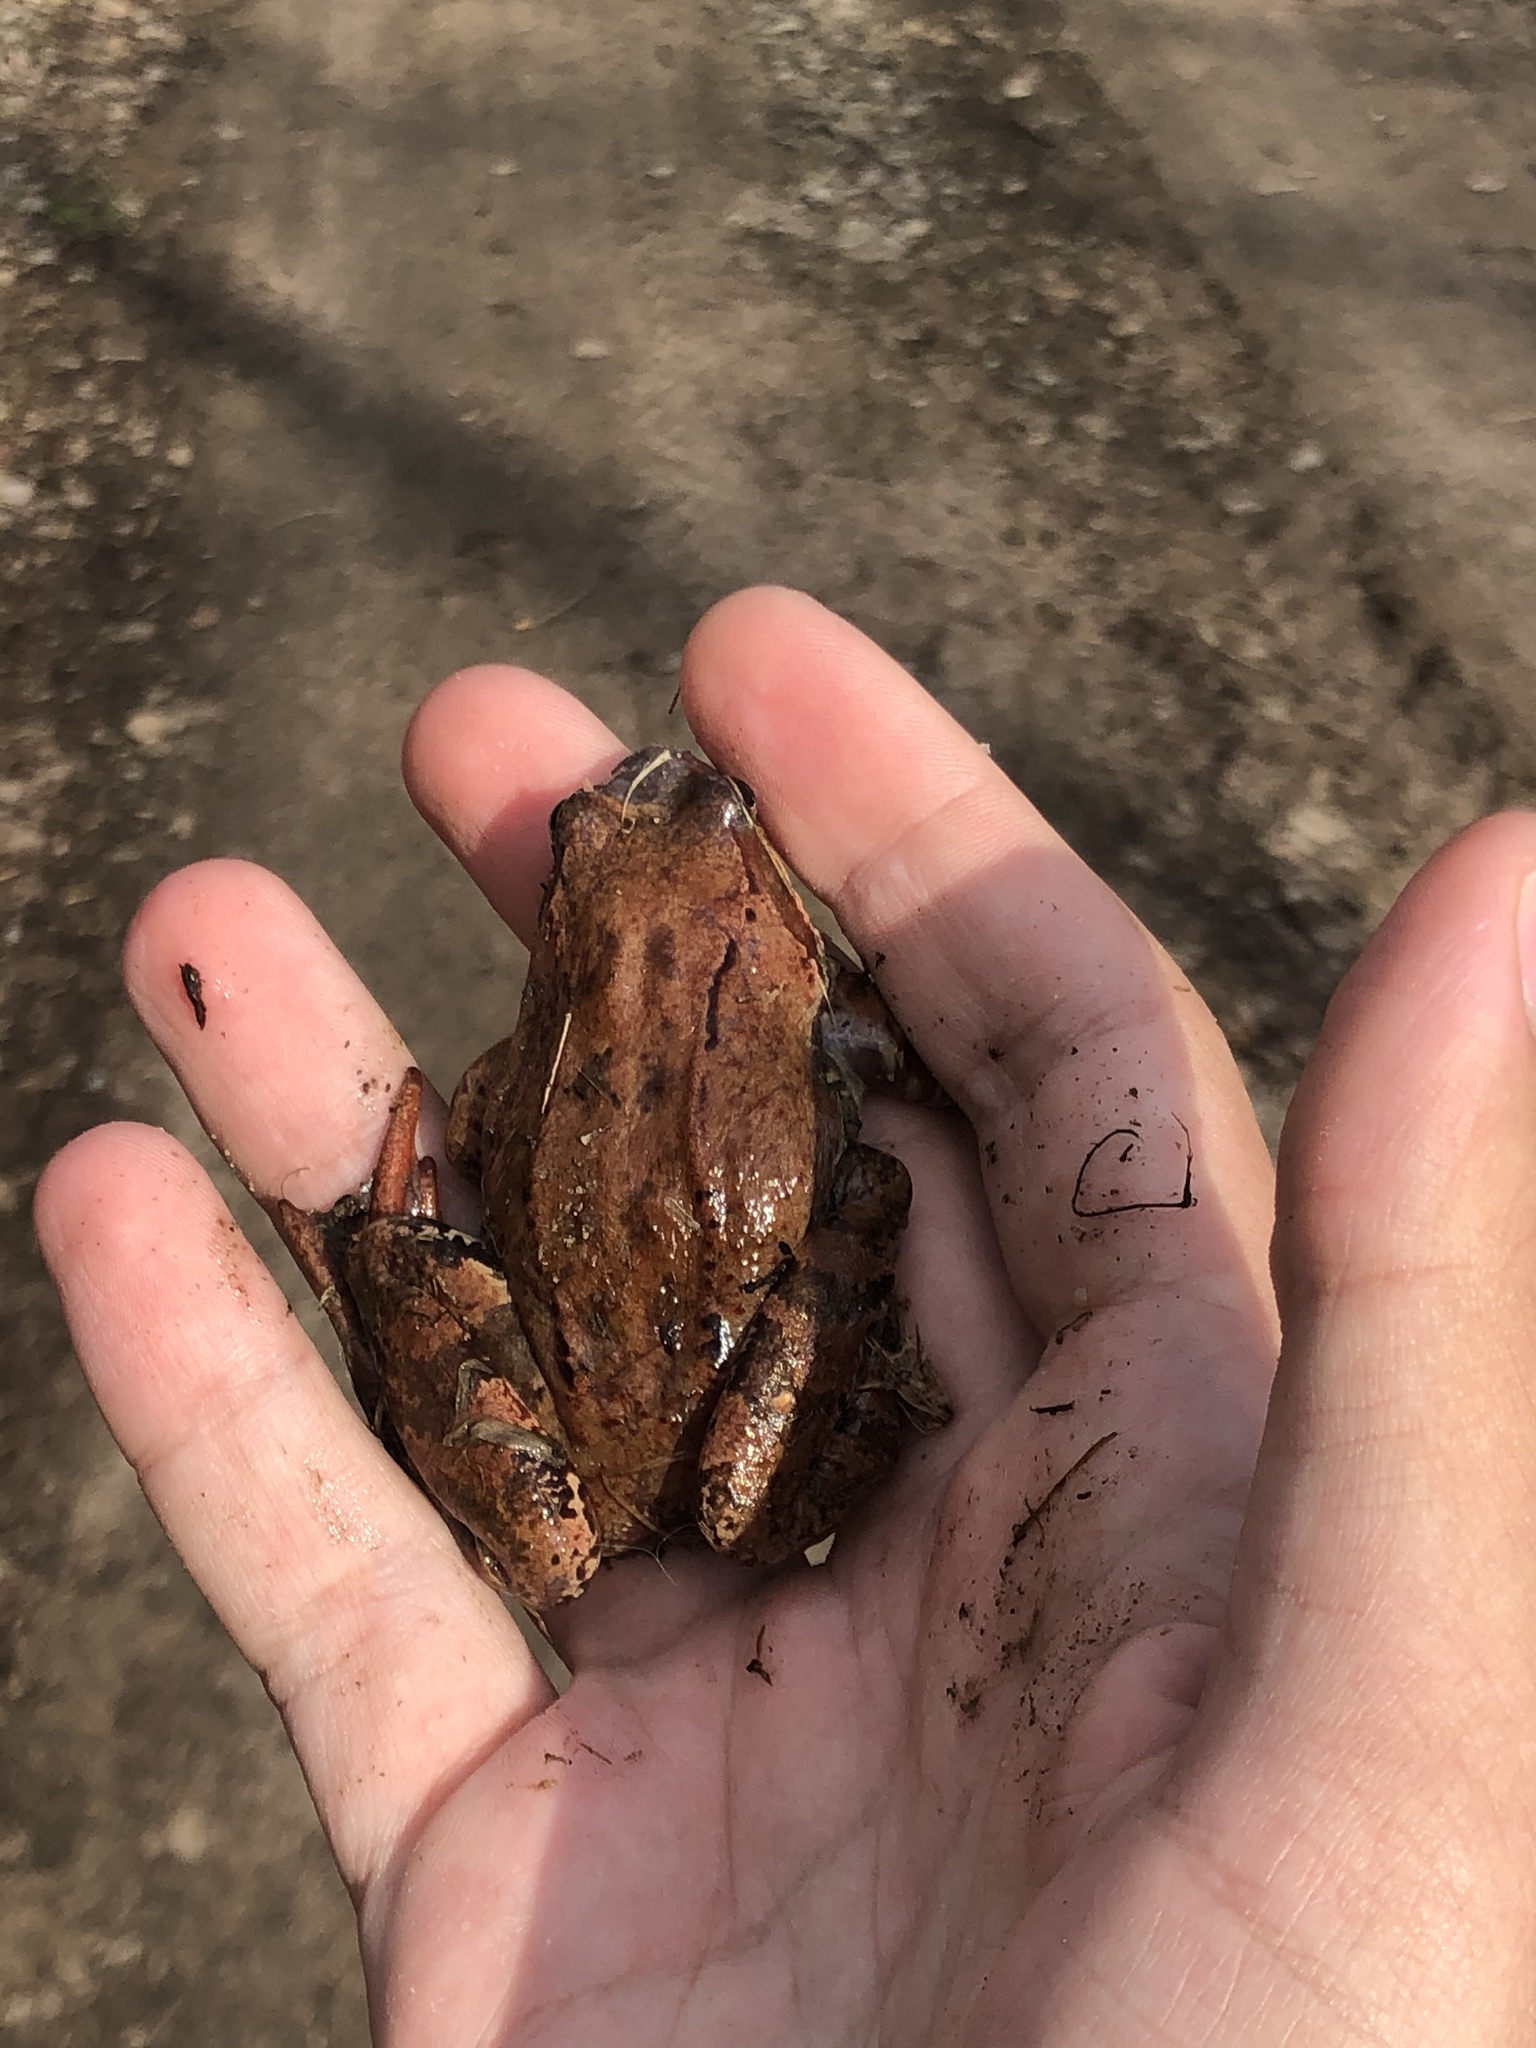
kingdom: Animalia
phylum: Chordata
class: Amphibia
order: Anura
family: Ranidae
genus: Rana
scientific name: Rana arvalis
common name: Moor frog
